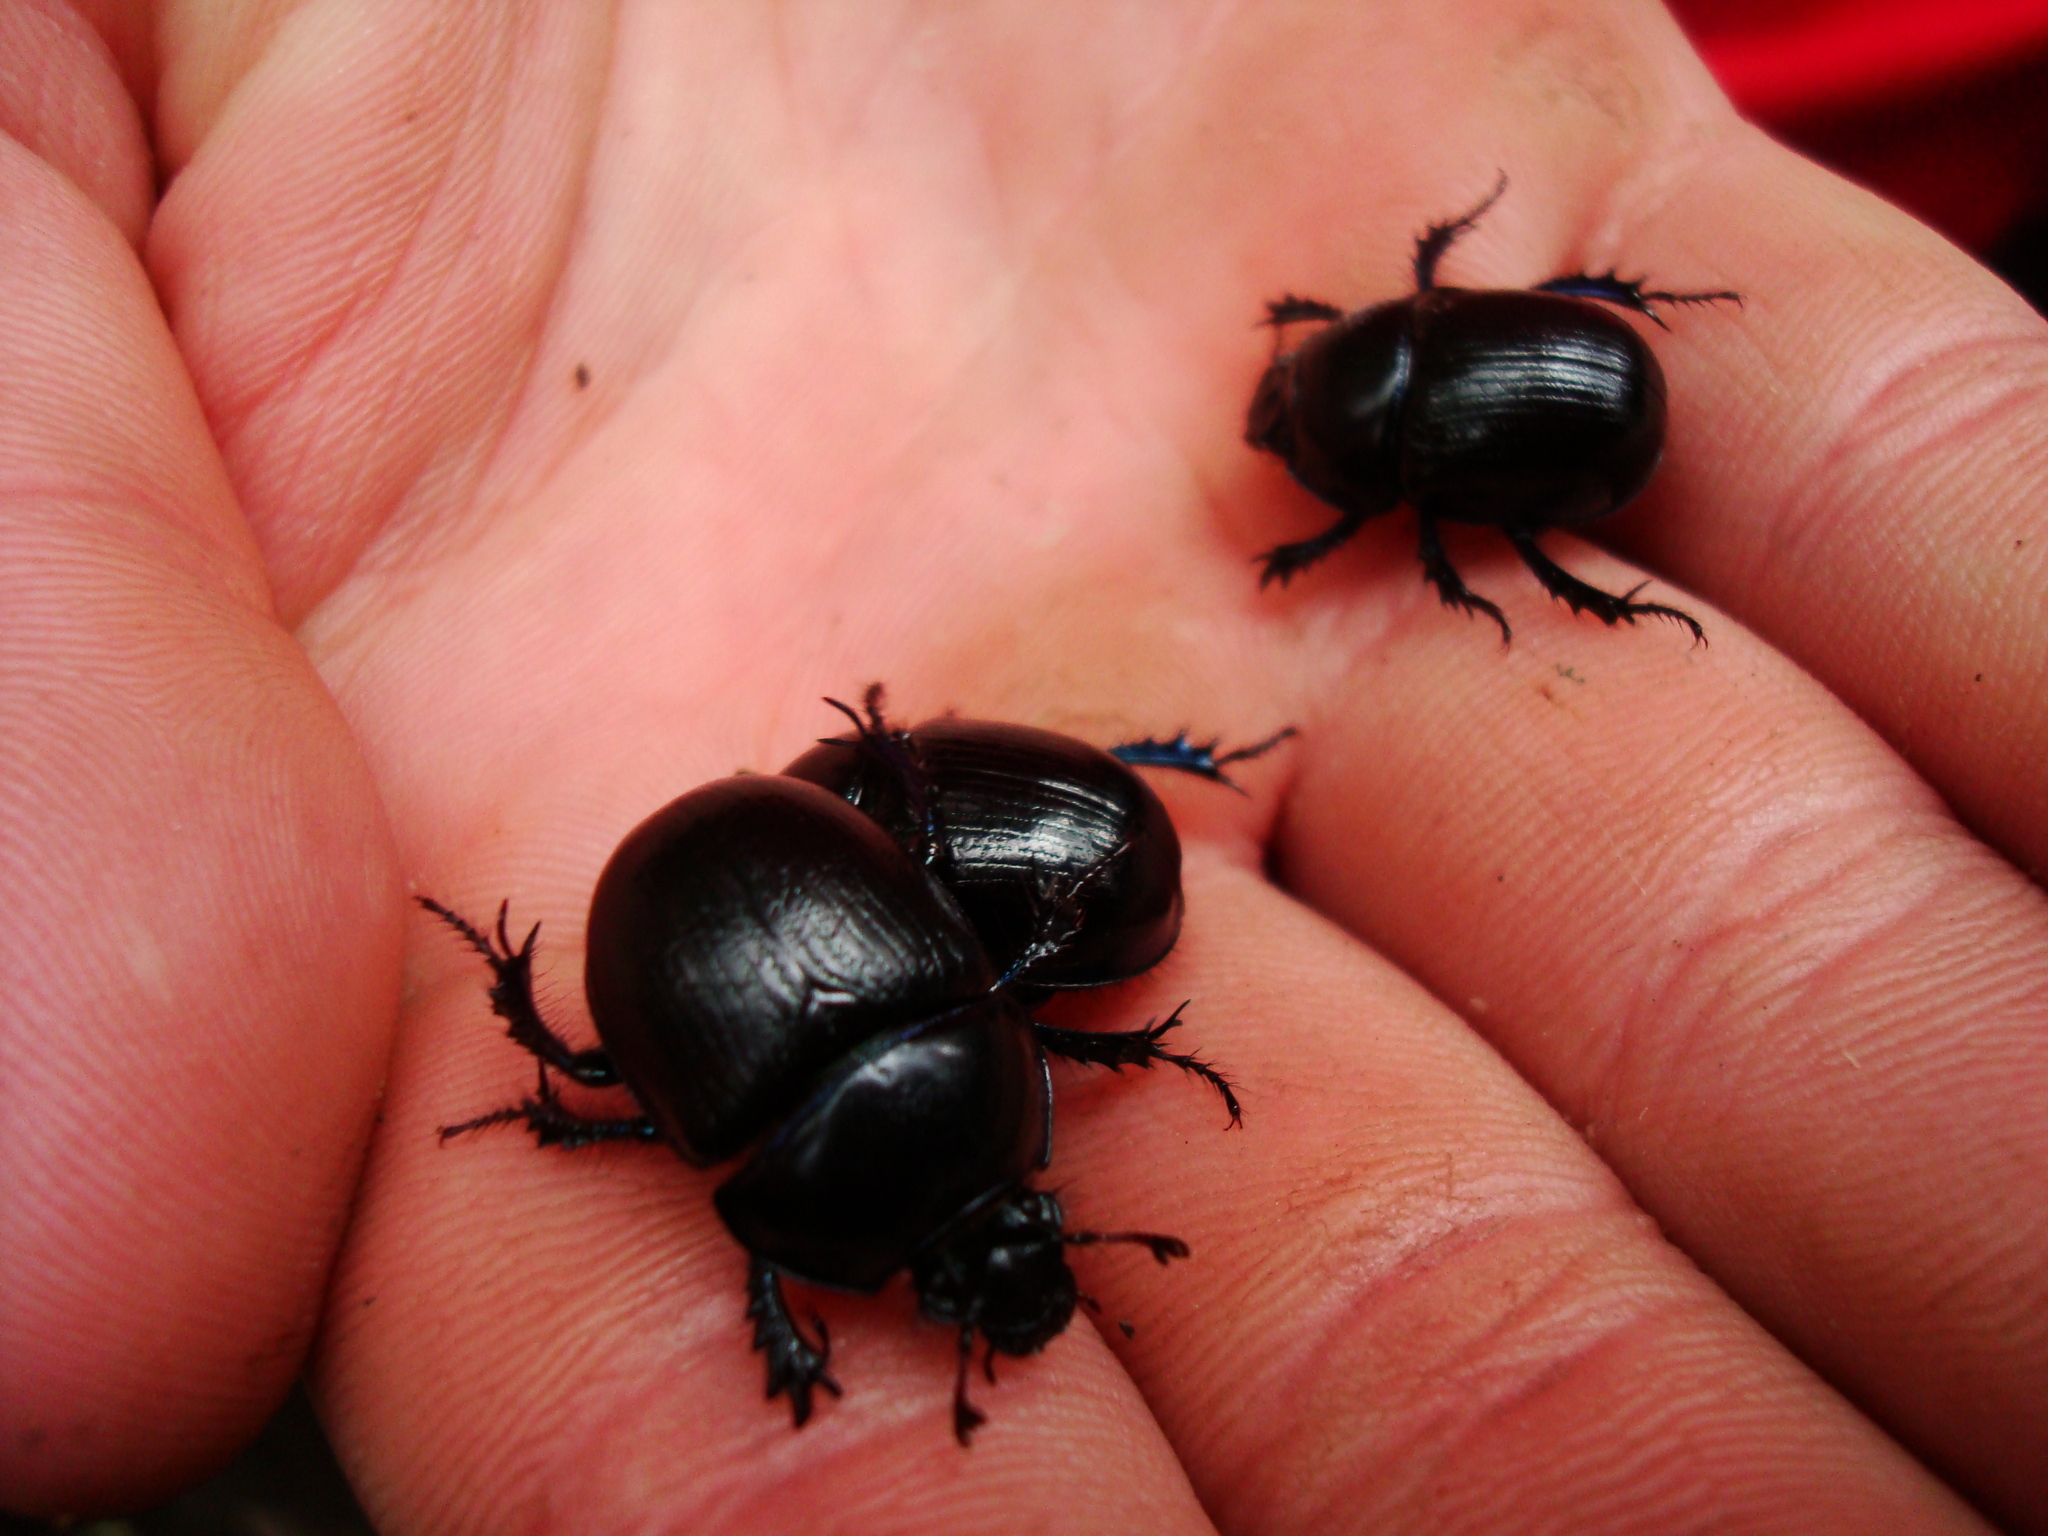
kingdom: Animalia
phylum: Arthropoda
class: Insecta
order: Coleoptera
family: Geotrupidae
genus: Anoplotrupes
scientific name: Anoplotrupes stercorosus
